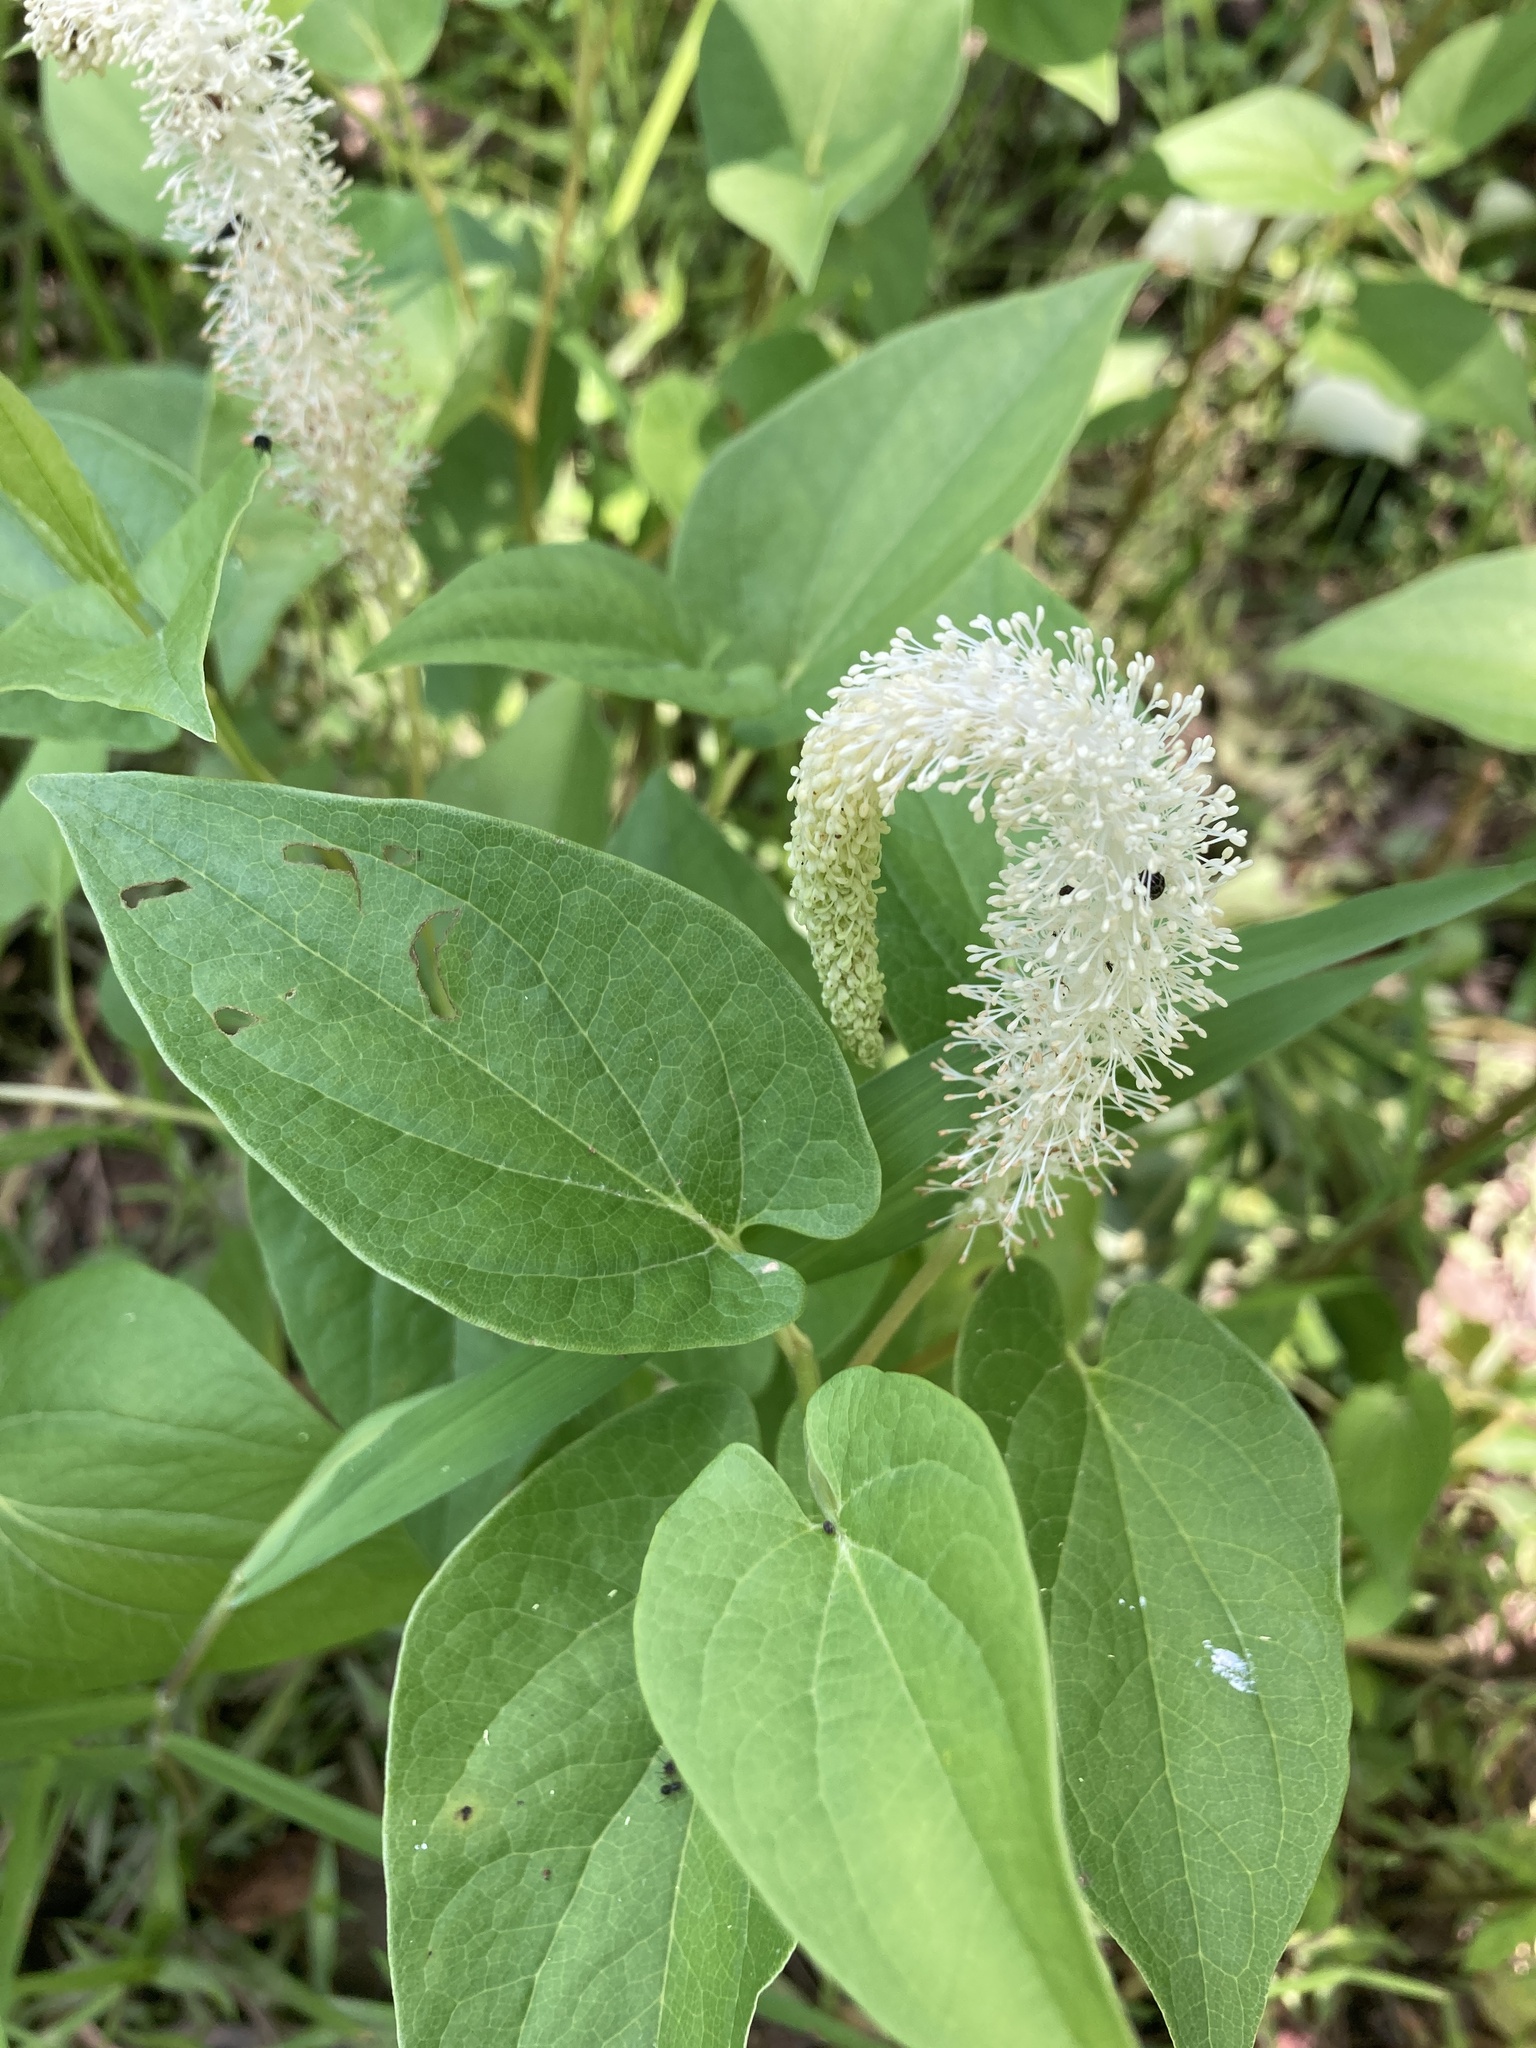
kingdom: Plantae
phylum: Tracheophyta
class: Magnoliopsida
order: Piperales
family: Saururaceae
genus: Saururus
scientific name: Saururus cernuus
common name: Lizard's-tail
